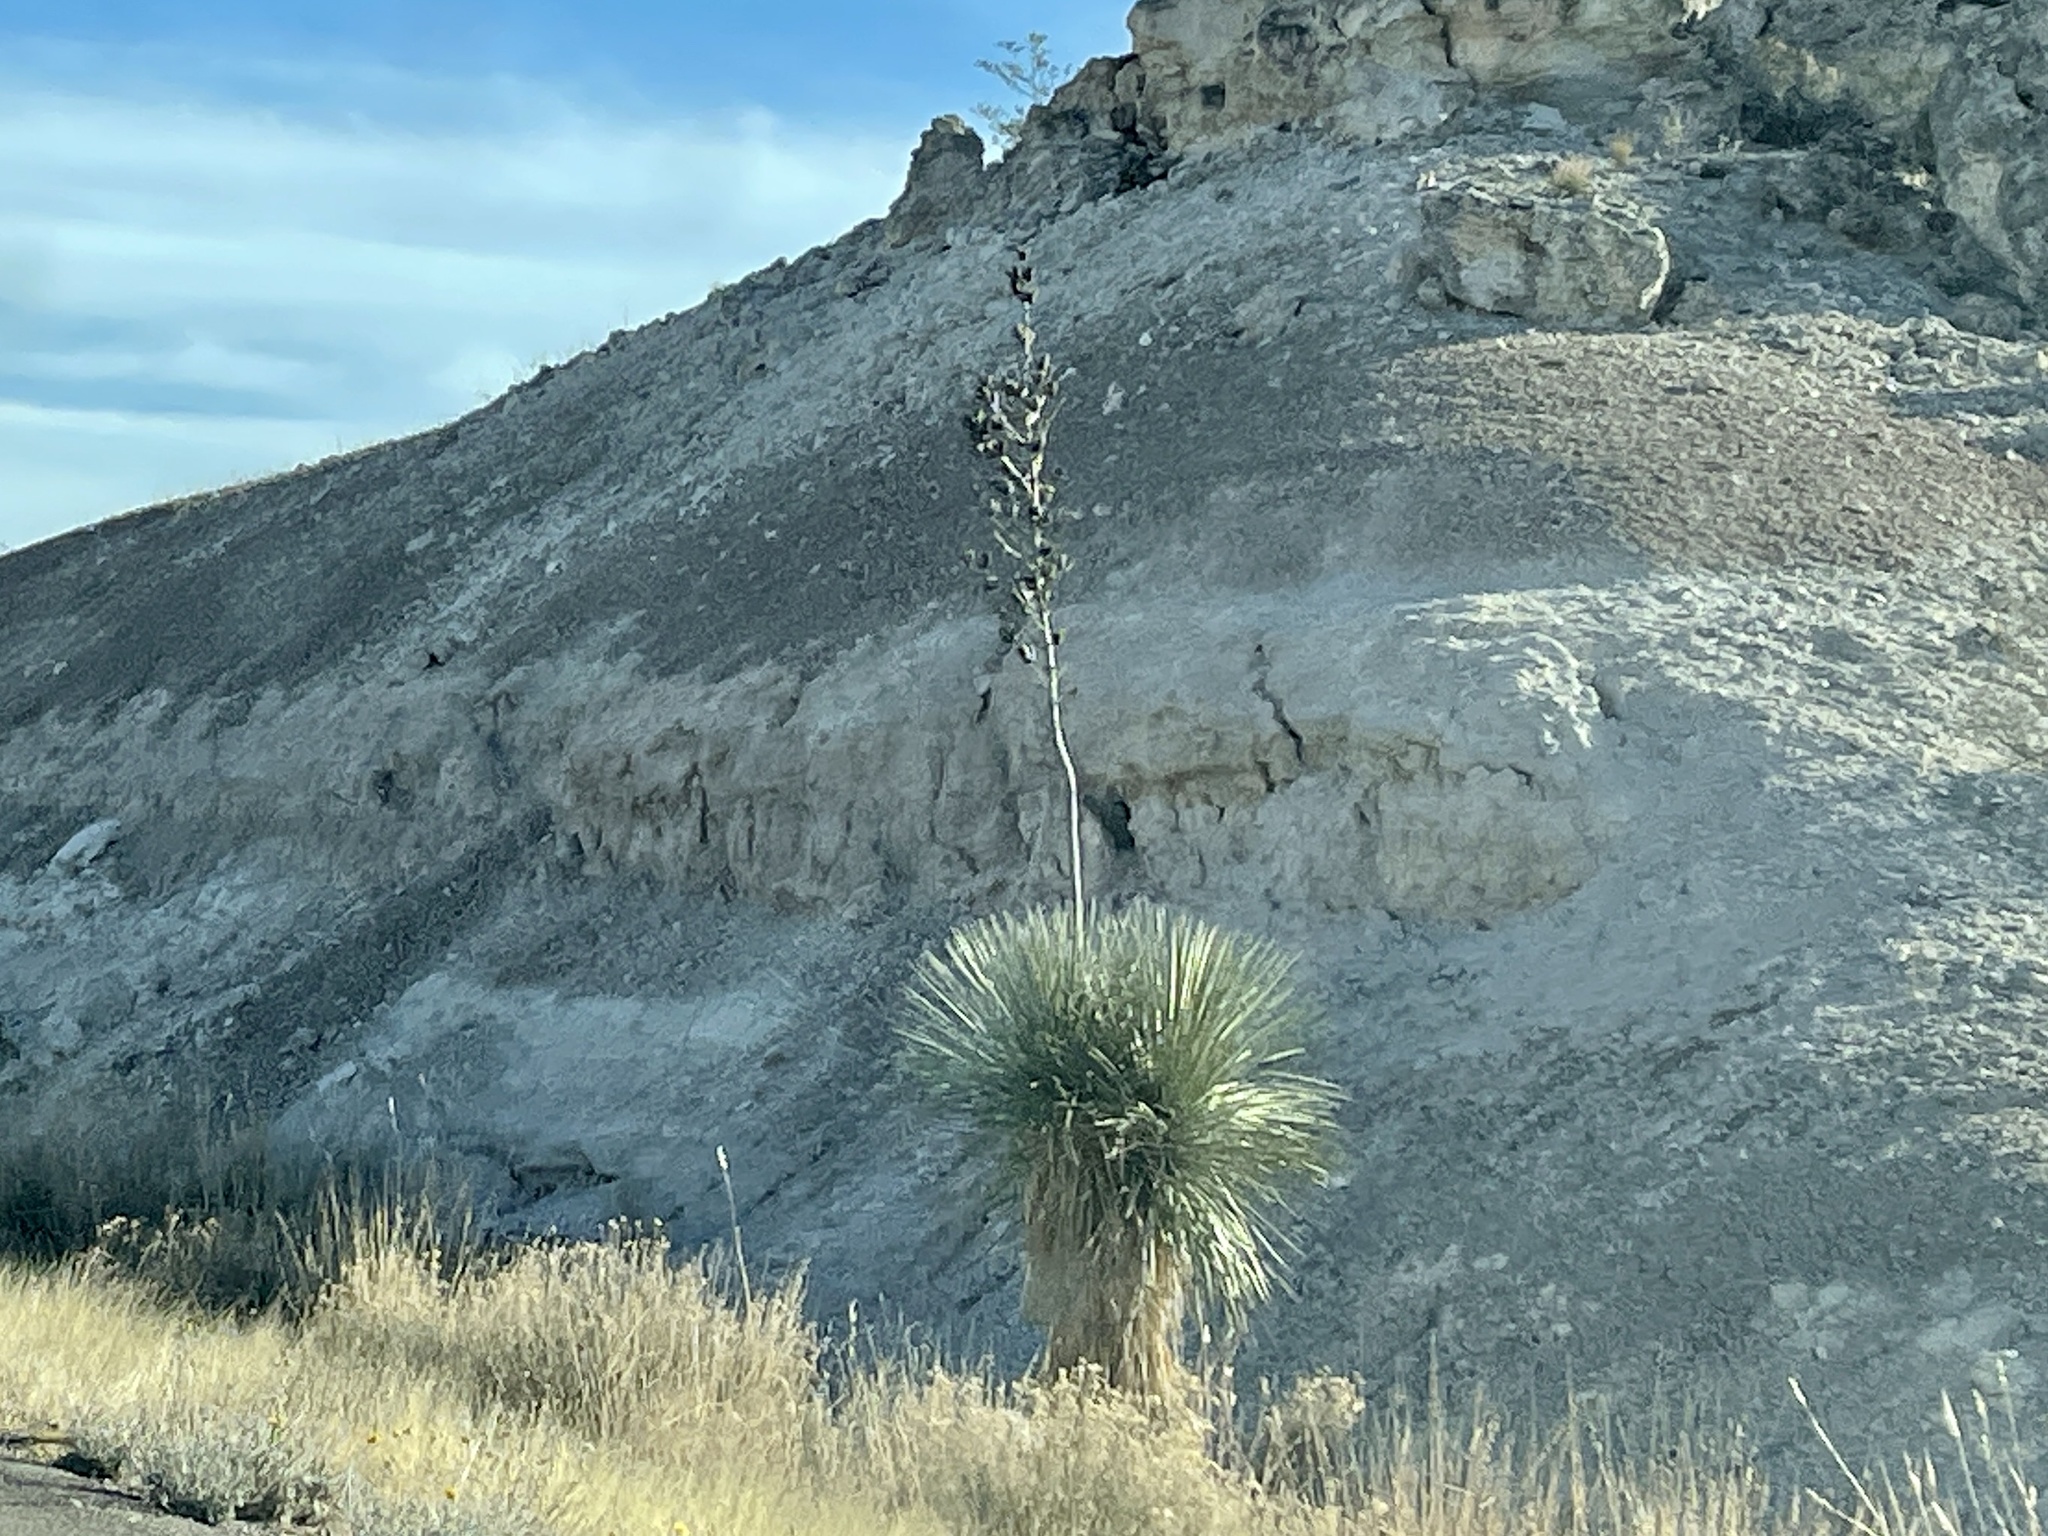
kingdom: Plantae
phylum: Tracheophyta
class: Liliopsida
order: Asparagales
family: Asparagaceae
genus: Yucca
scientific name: Yucca elata
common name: Palmella
